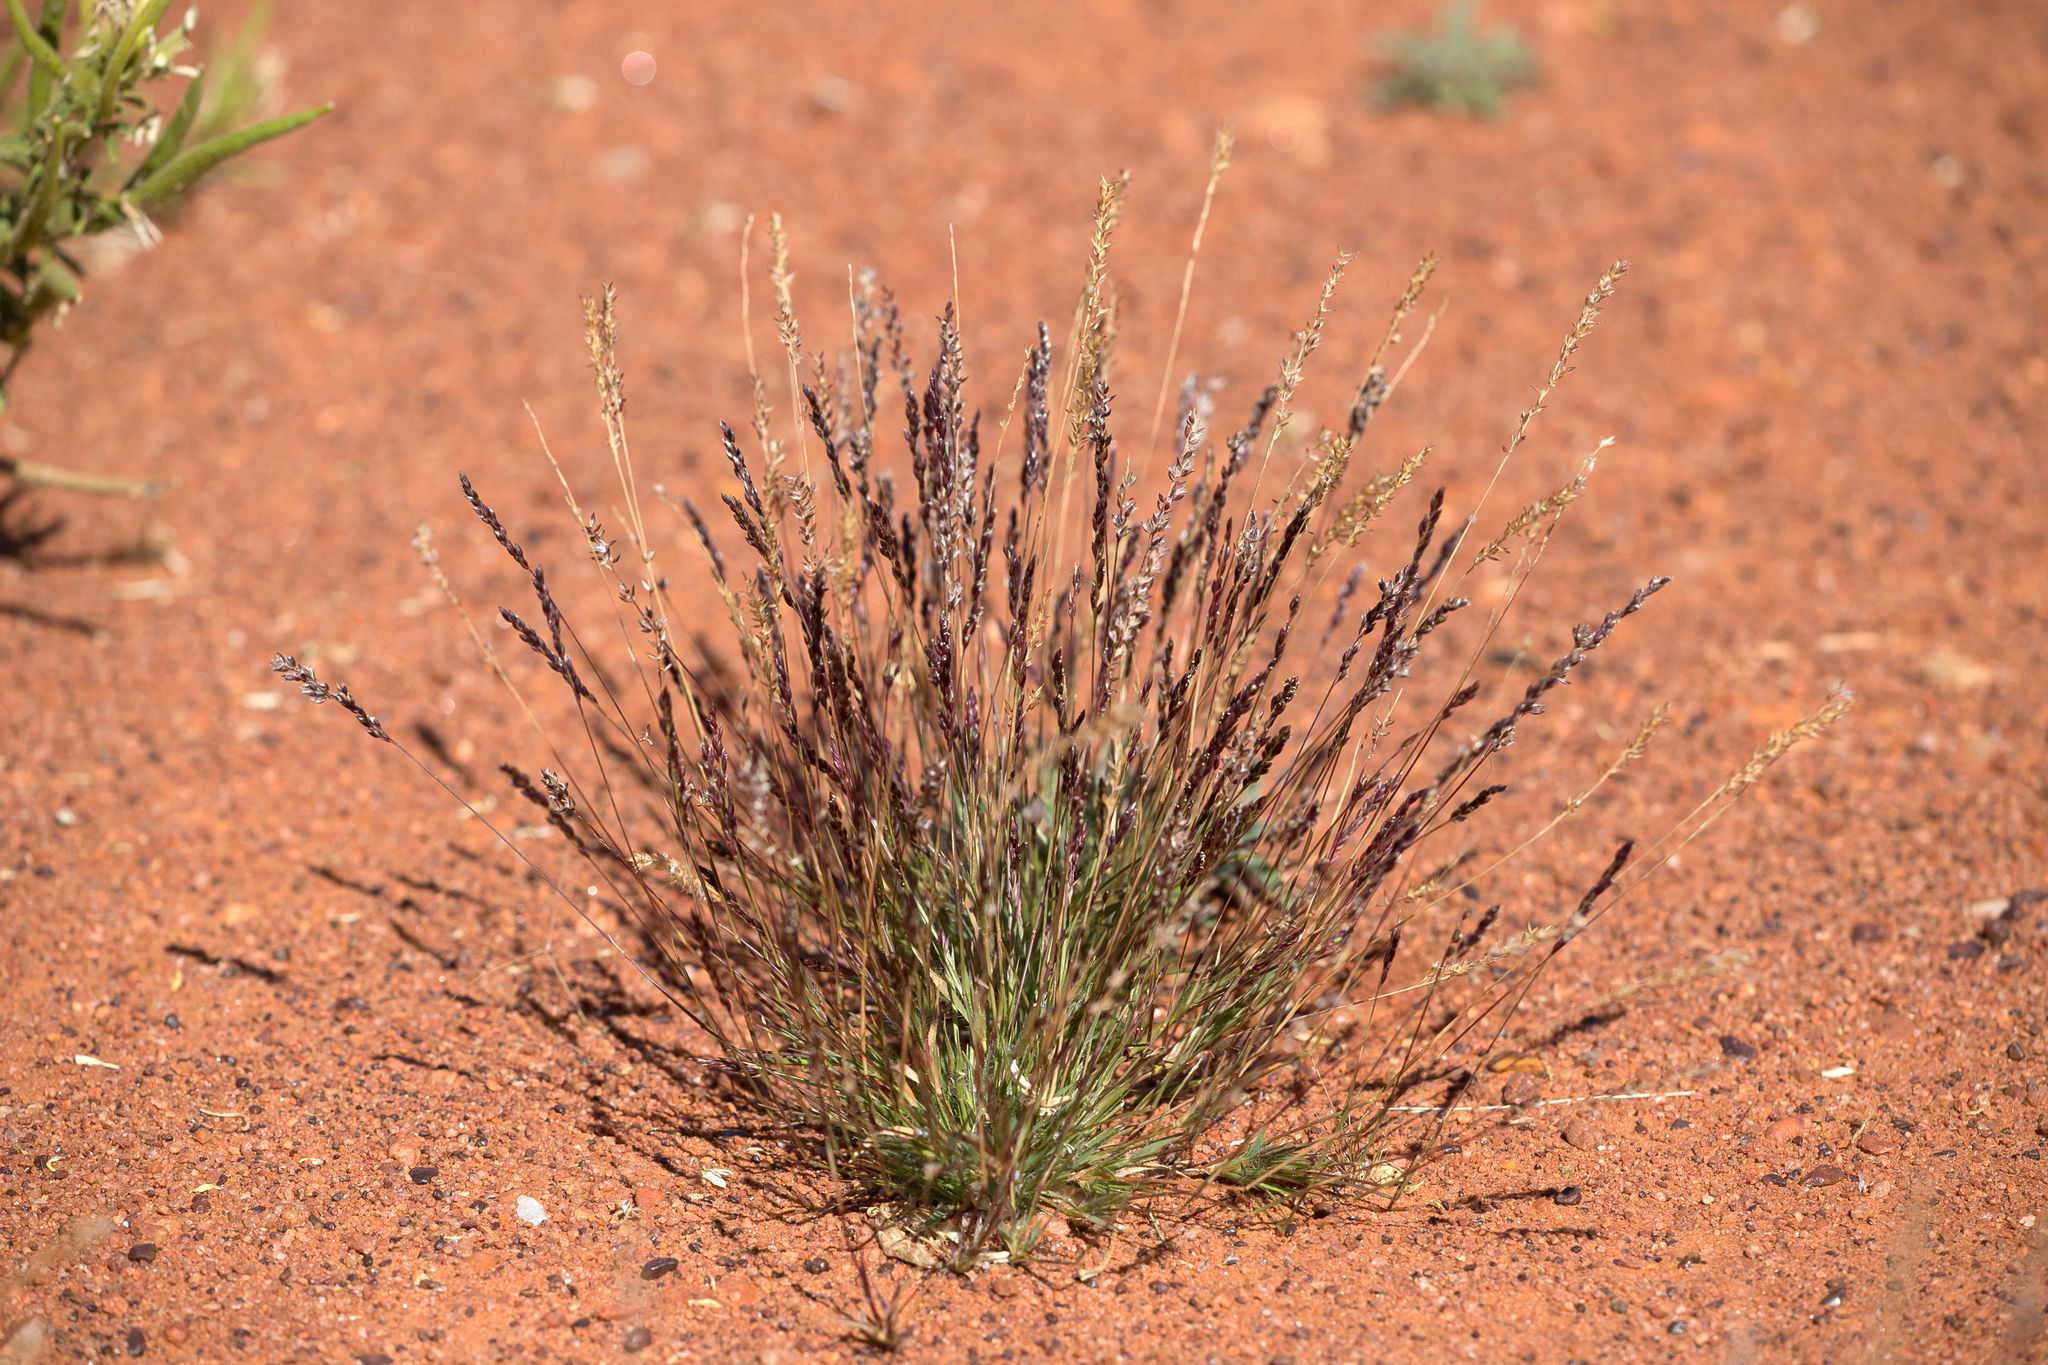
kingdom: Plantae
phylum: Tracheophyta
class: Liliopsida
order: Poales
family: Poaceae
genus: Eriachne
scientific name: Eriachne pulchella
